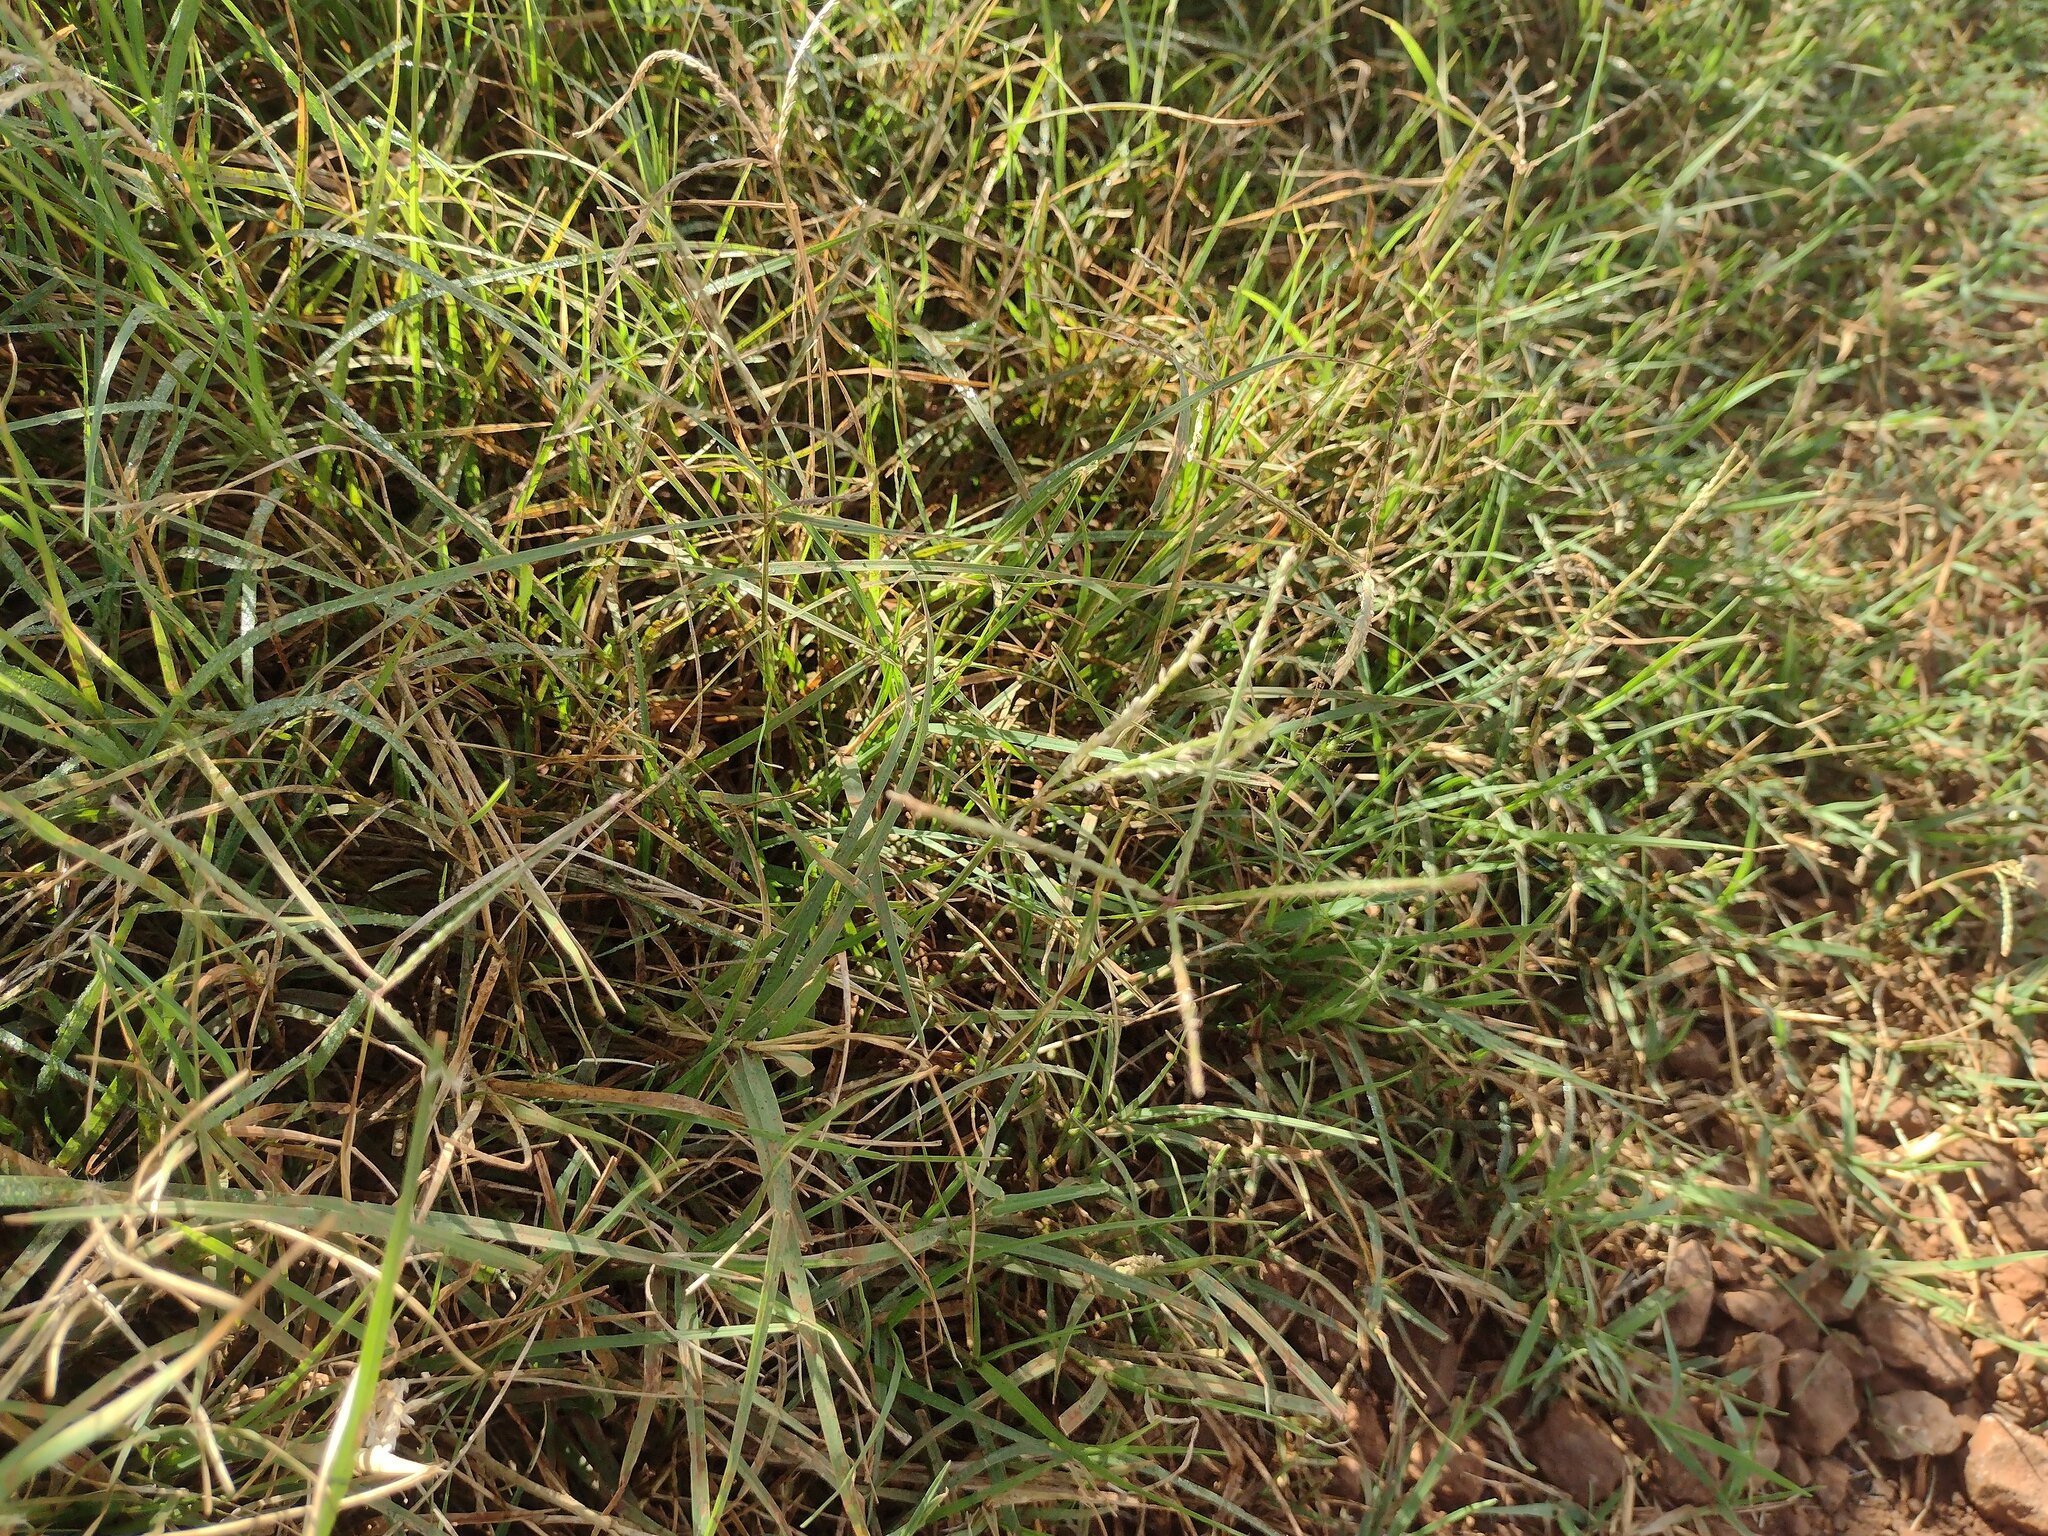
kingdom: Plantae
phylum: Tracheophyta
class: Liliopsida
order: Poales
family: Poaceae
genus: Cynodon
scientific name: Cynodon dactylon
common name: Bermuda grass
